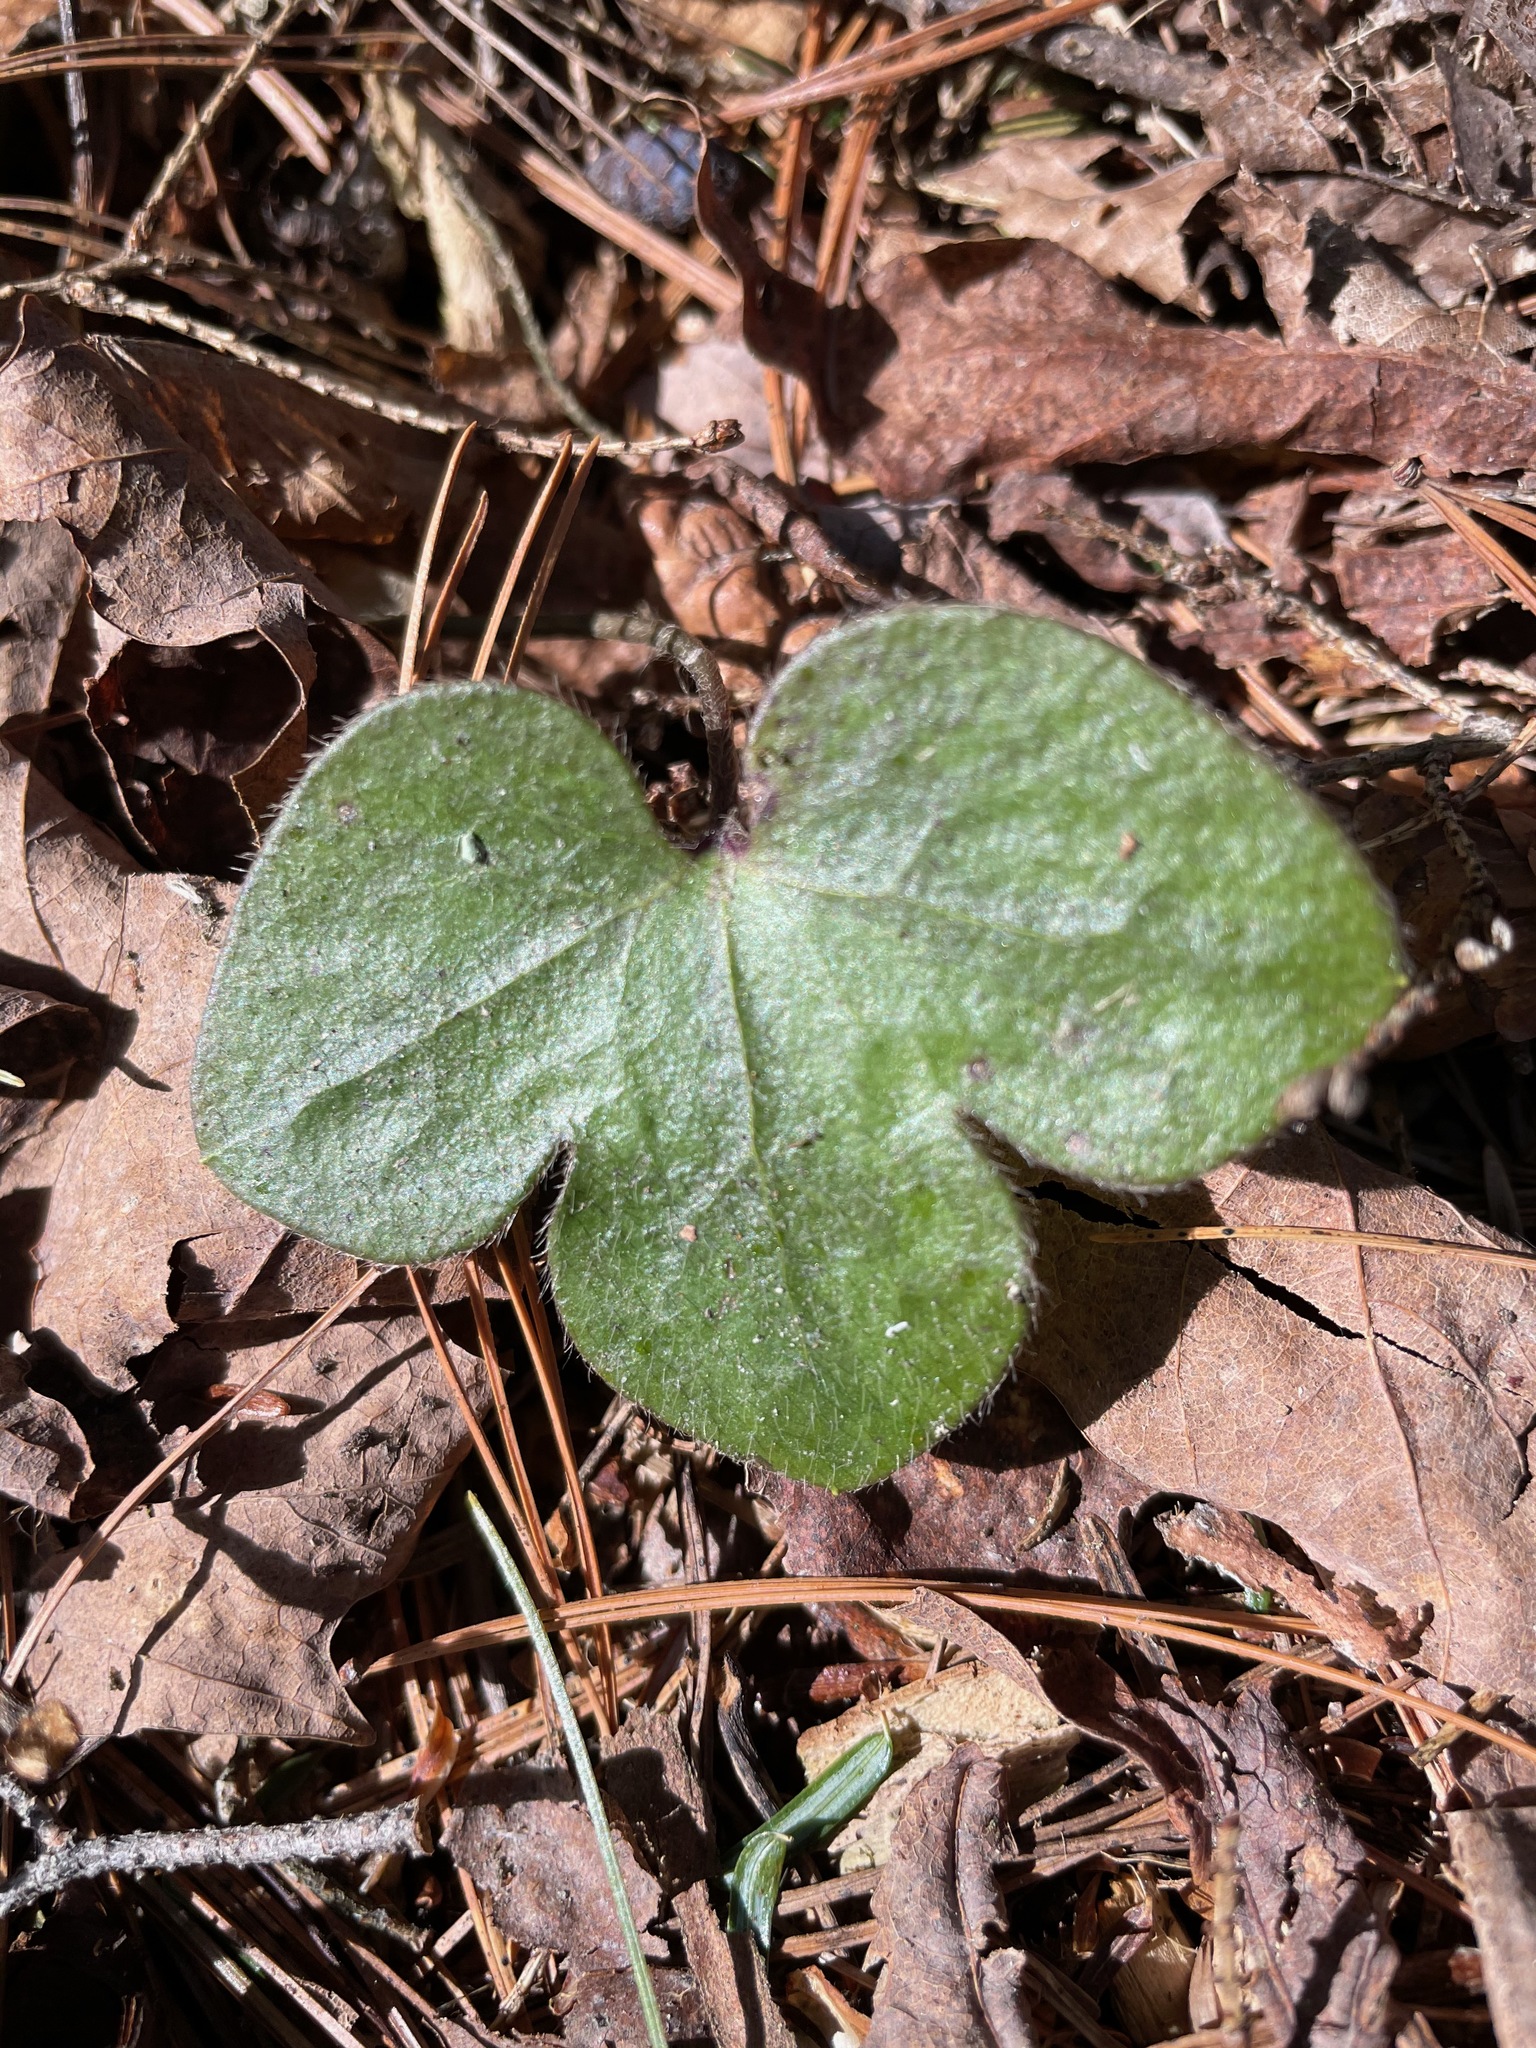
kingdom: Plantae
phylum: Tracheophyta
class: Magnoliopsida
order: Ranunculales
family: Ranunculaceae
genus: Hepatica
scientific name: Hepatica americana
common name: American hepatica
